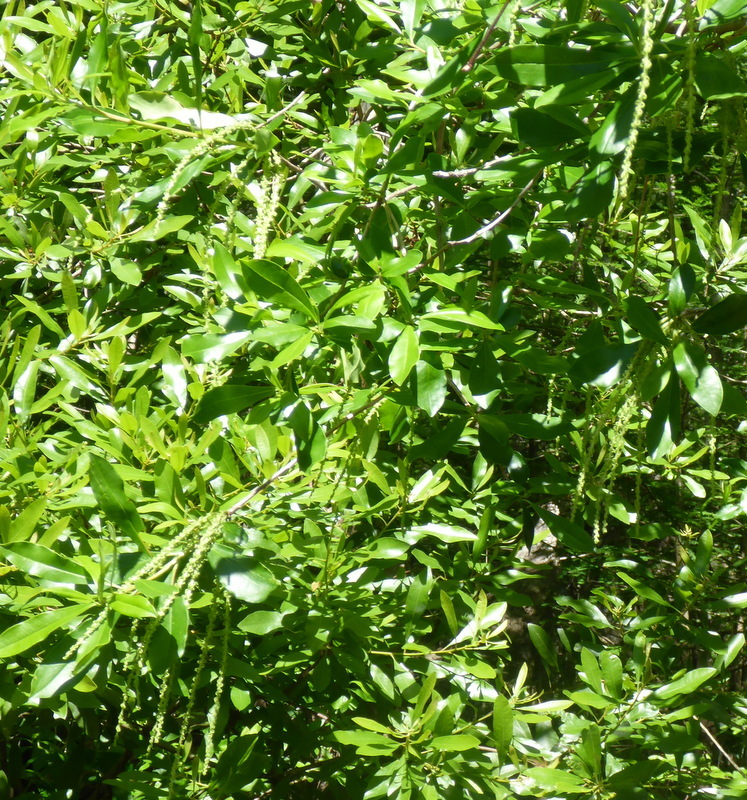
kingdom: Plantae
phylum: Tracheophyta
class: Magnoliopsida
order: Ericales
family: Cyrillaceae
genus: Cyrilla
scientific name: Cyrilla racemiflora
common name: Black titi
